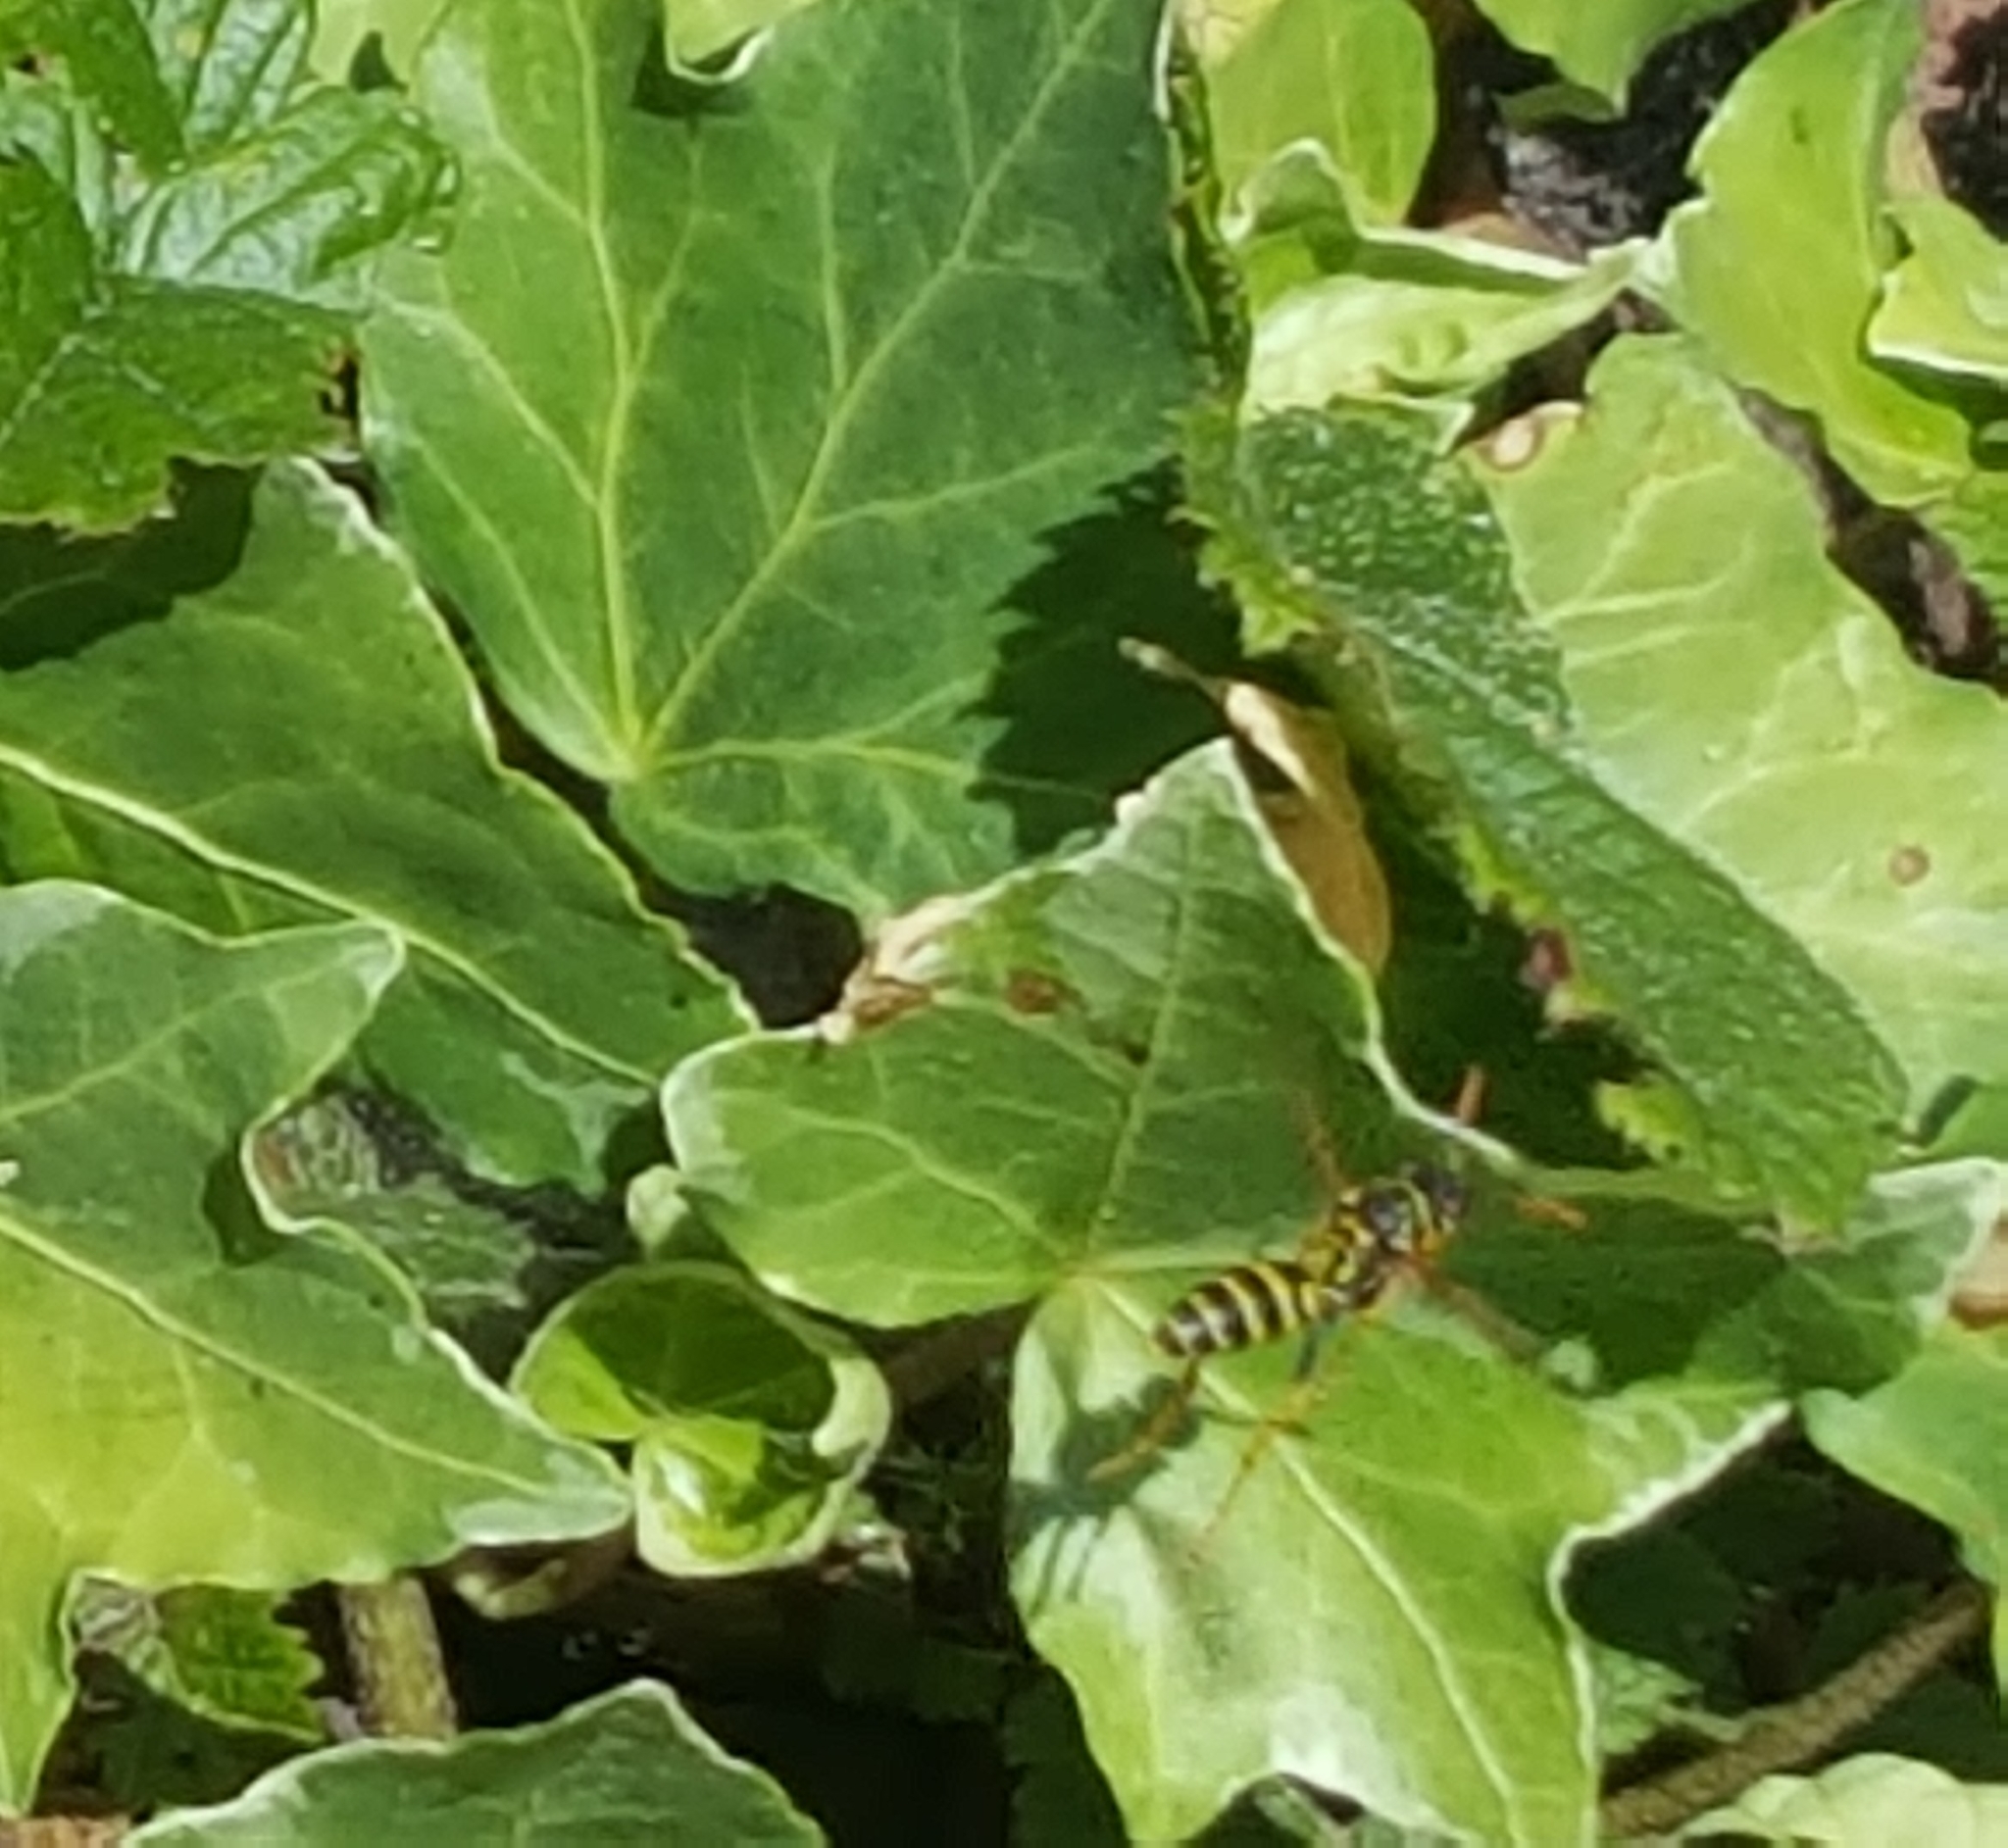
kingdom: Animalia
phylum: Arthropoda
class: Insecta
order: Hymenoptera
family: Eumenidae
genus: Polistes
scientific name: Polistes dominula
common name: Paper wasp
